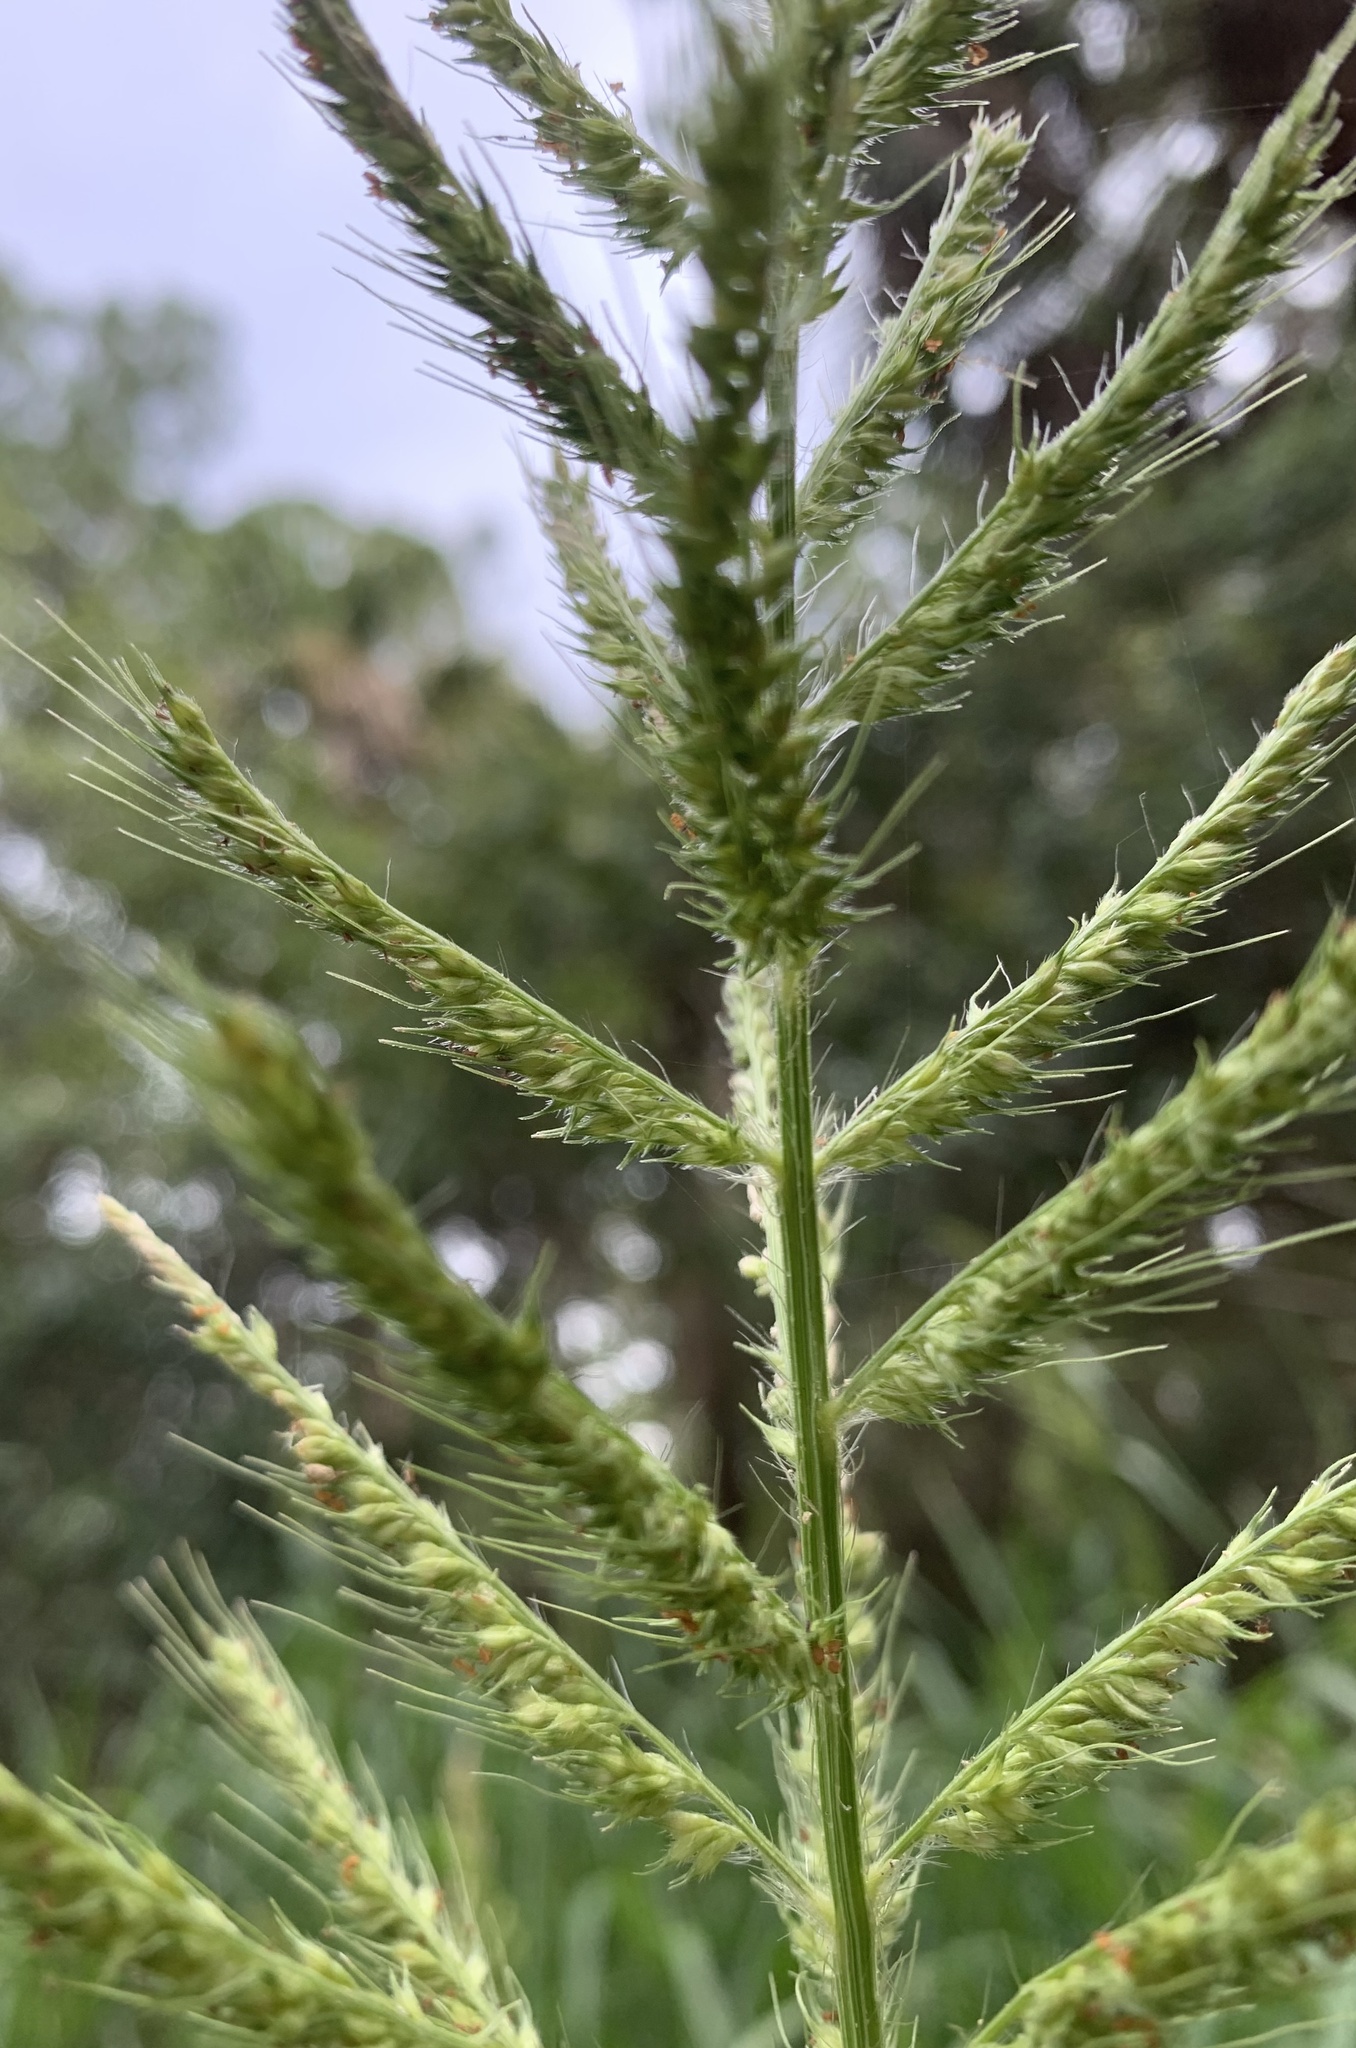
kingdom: Plantae
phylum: Tracheophyta
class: Liliopsida
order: Poales
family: Poaceae
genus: Echinochloa
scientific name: Echinochloa walteri
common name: Coast barnyard grass
